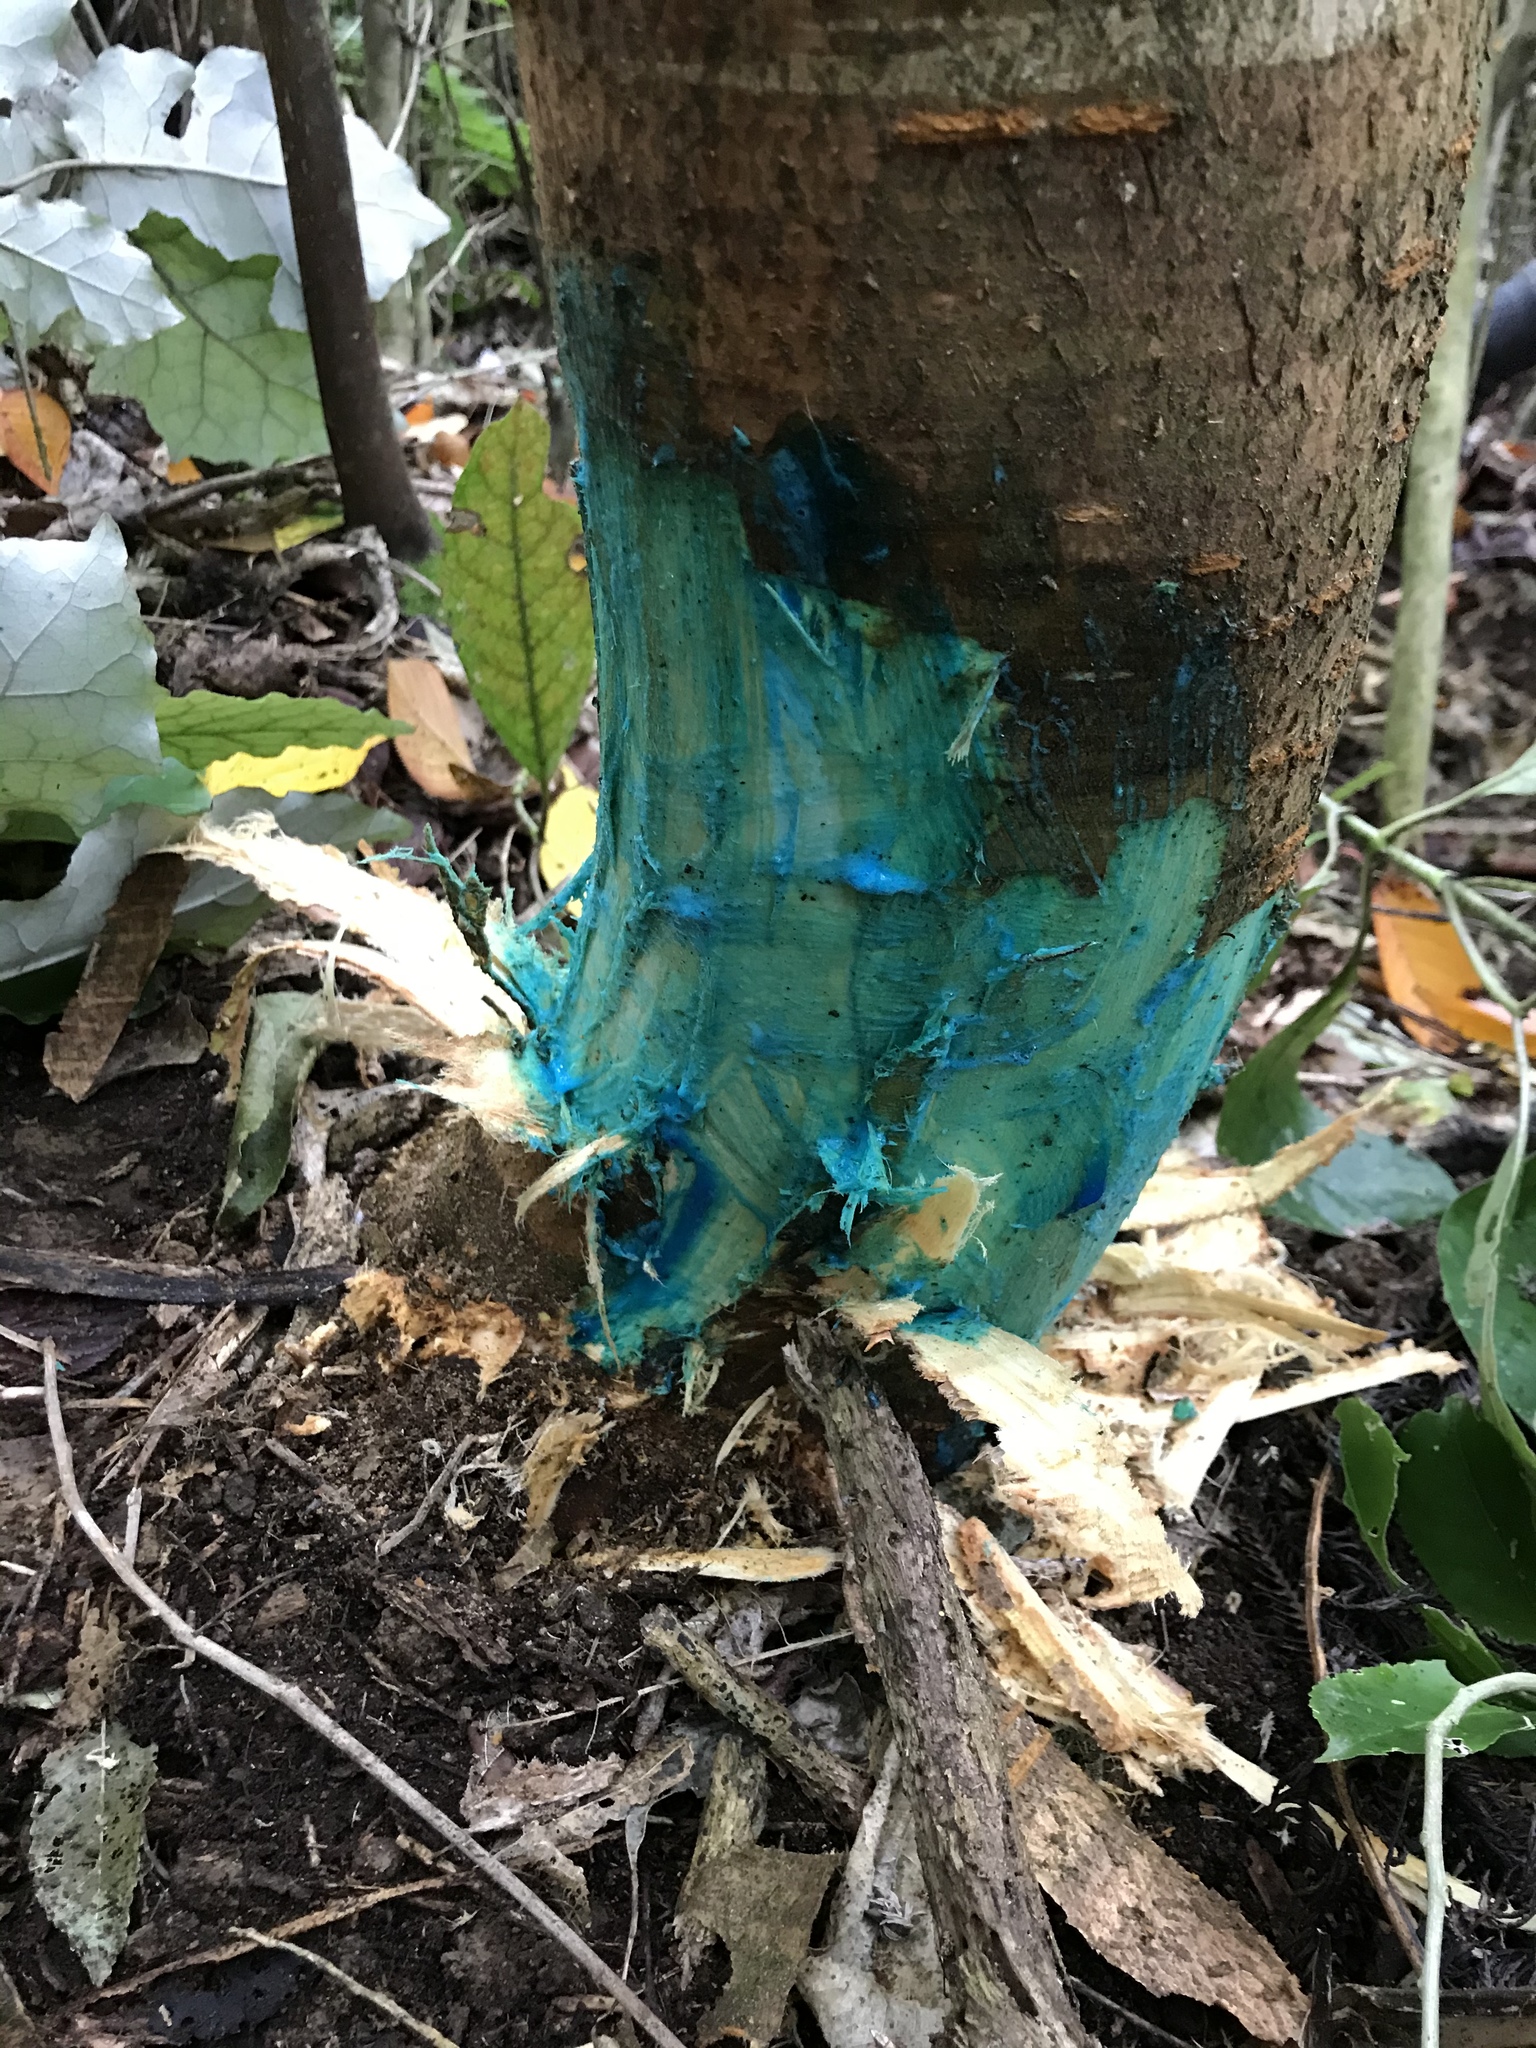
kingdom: Plantae
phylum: Tracheophyta
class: Magnoliopsida
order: Rosales
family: Rosaceae
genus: Prunus
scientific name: Prunus serrulata
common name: Japanese cherry
